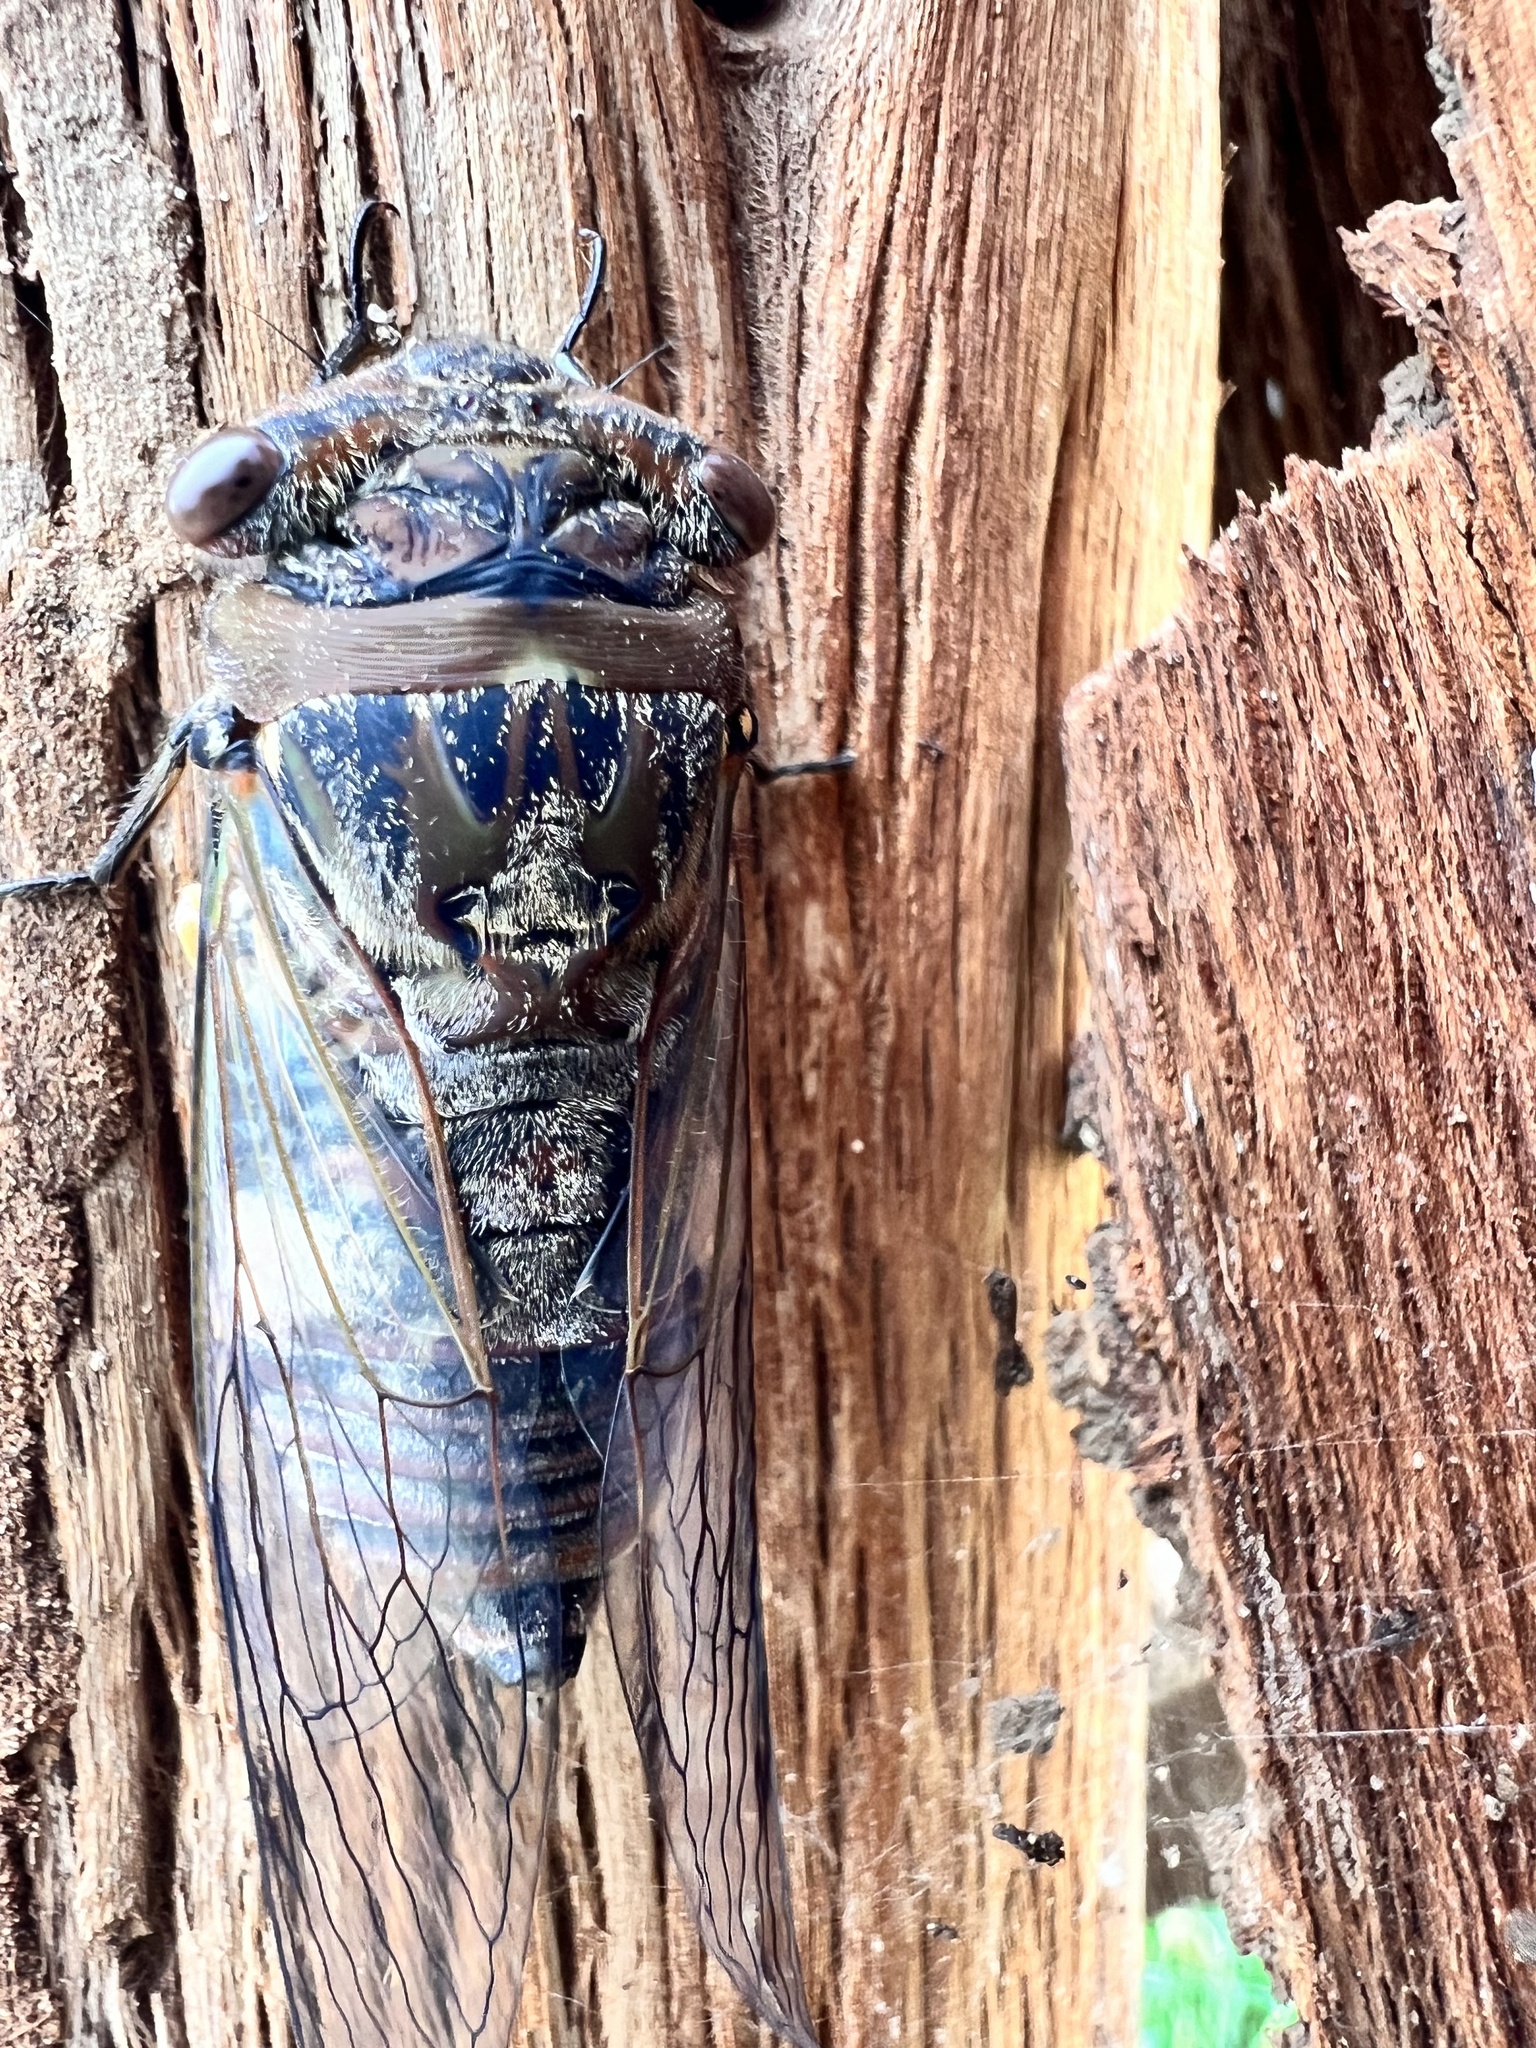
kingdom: Animalia
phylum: Arthropoda
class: Insecta
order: Hemiptera
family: Cicadidae
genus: Psaltoda
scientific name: Psaltoda plaga
